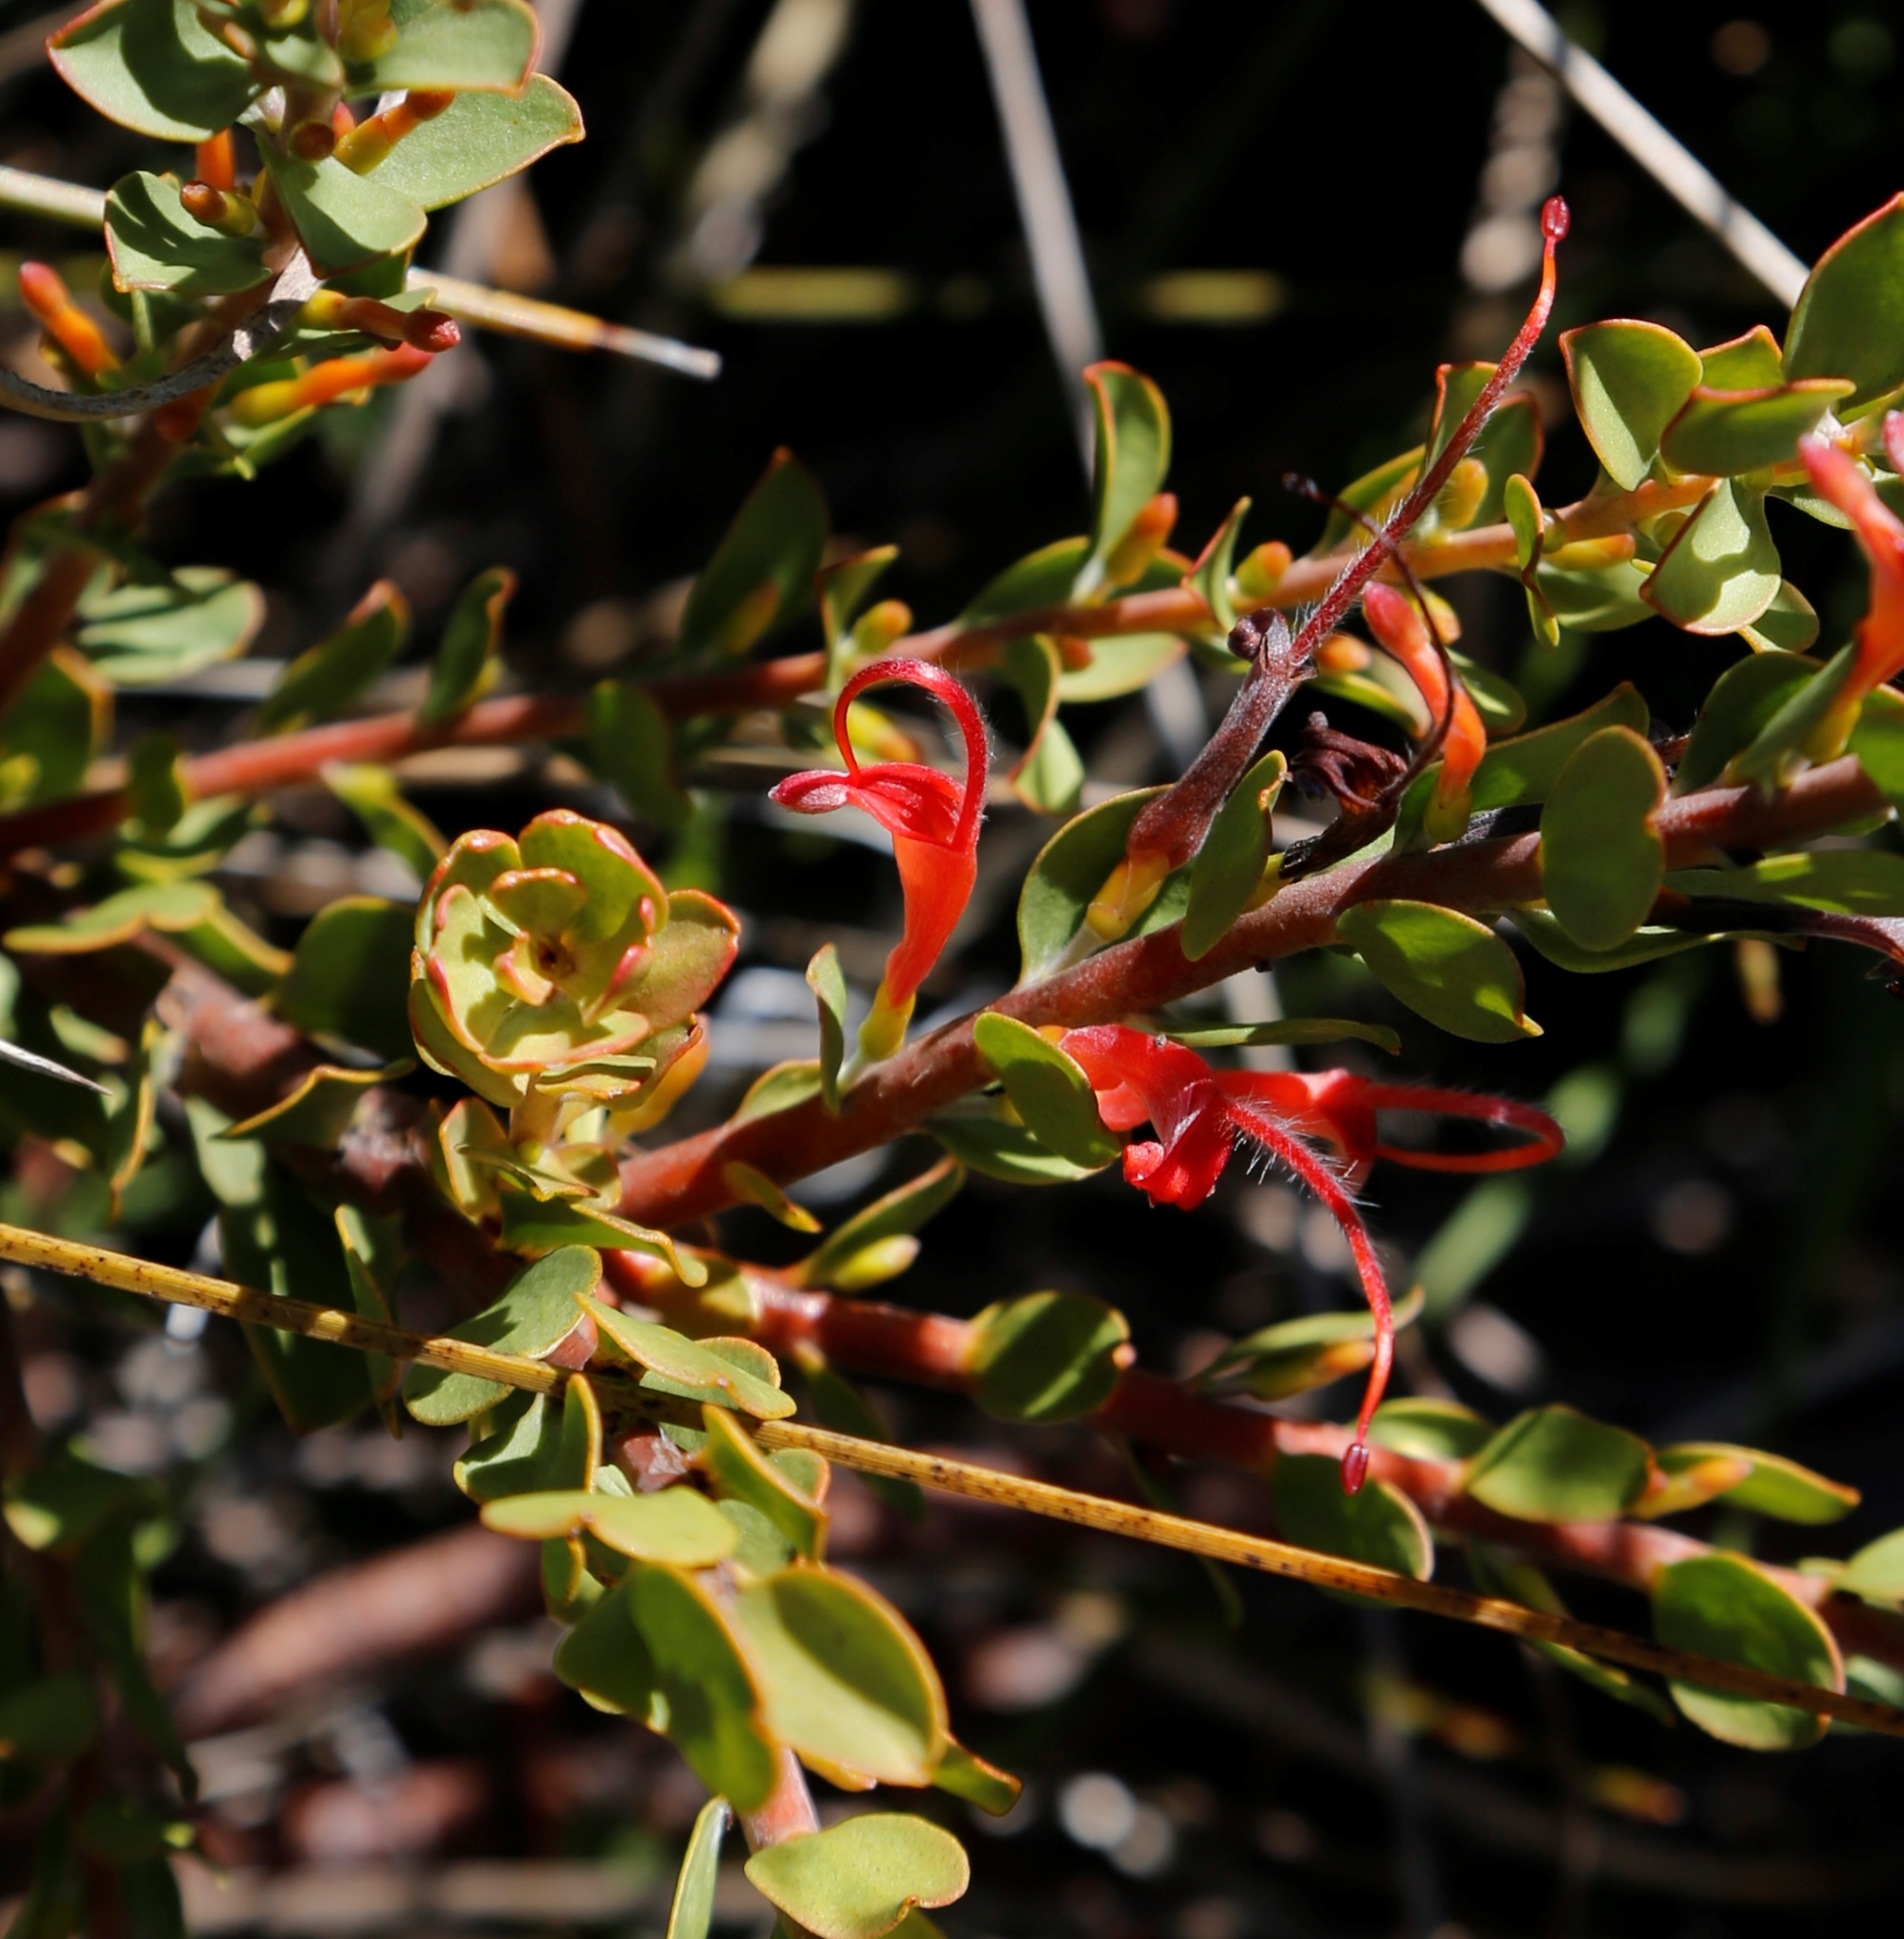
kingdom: Plantae
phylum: Tracheophyta
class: Magnoliopsida
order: Proteales
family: Proteaceae
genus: Adenanthos
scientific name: Adenanthos obovatus
